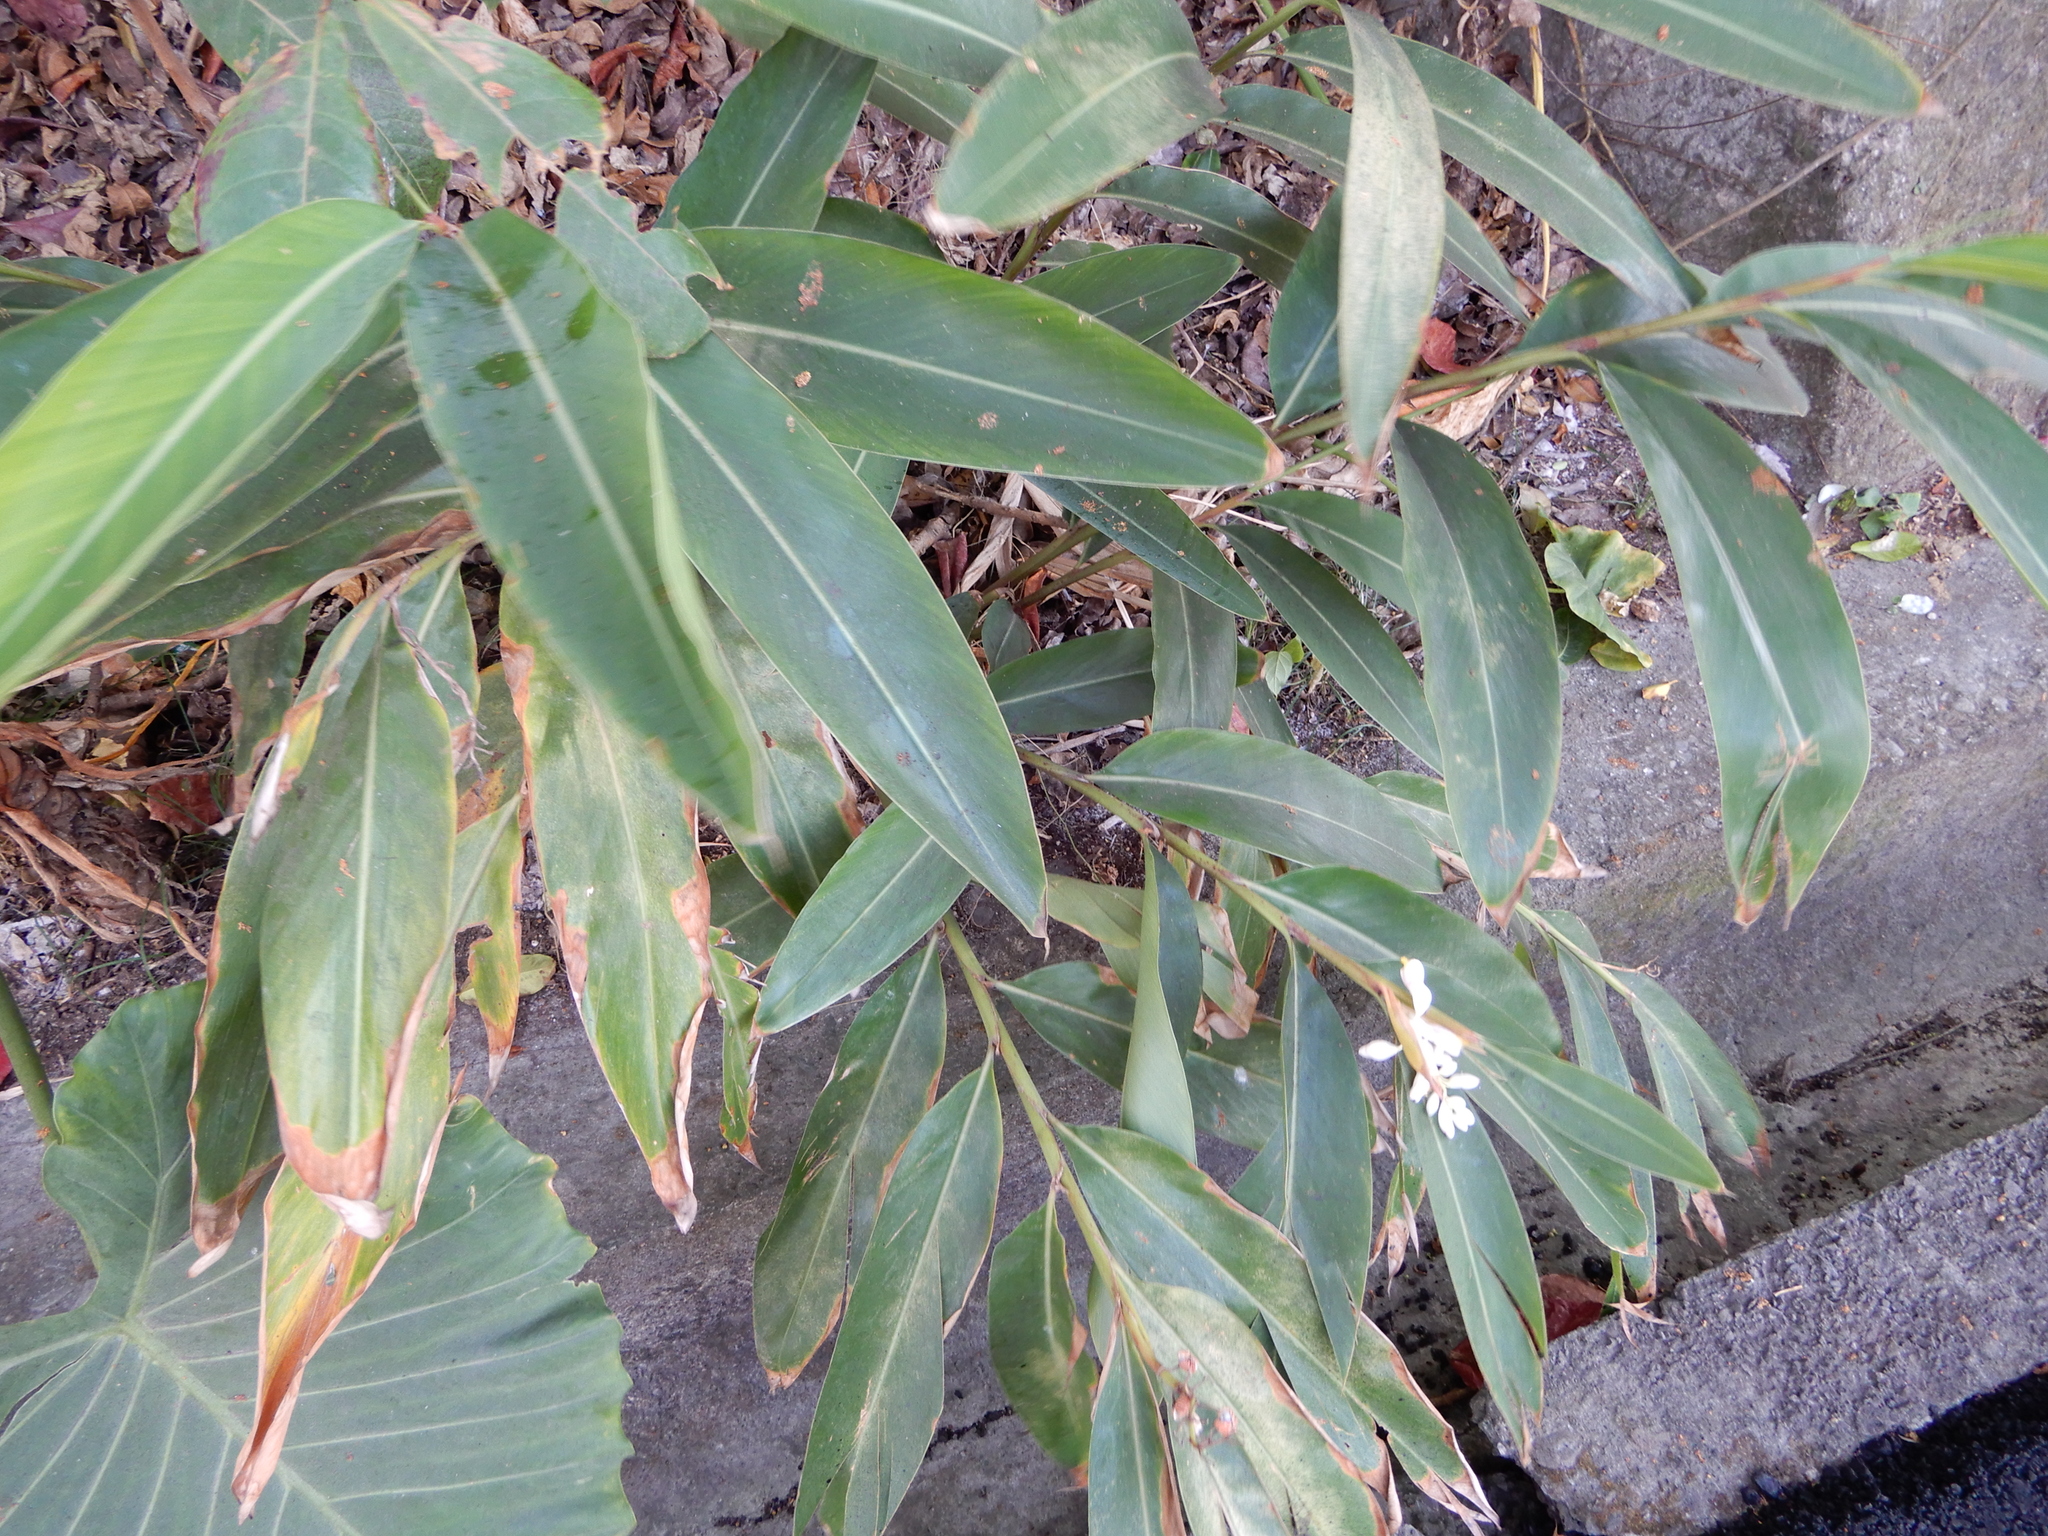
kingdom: Plantae
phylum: Tracheophyta
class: Liliopsida
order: Zingiberales
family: Zingiberaceae
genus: Alpinia
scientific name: Alpinia zerumbet
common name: Shellplant
